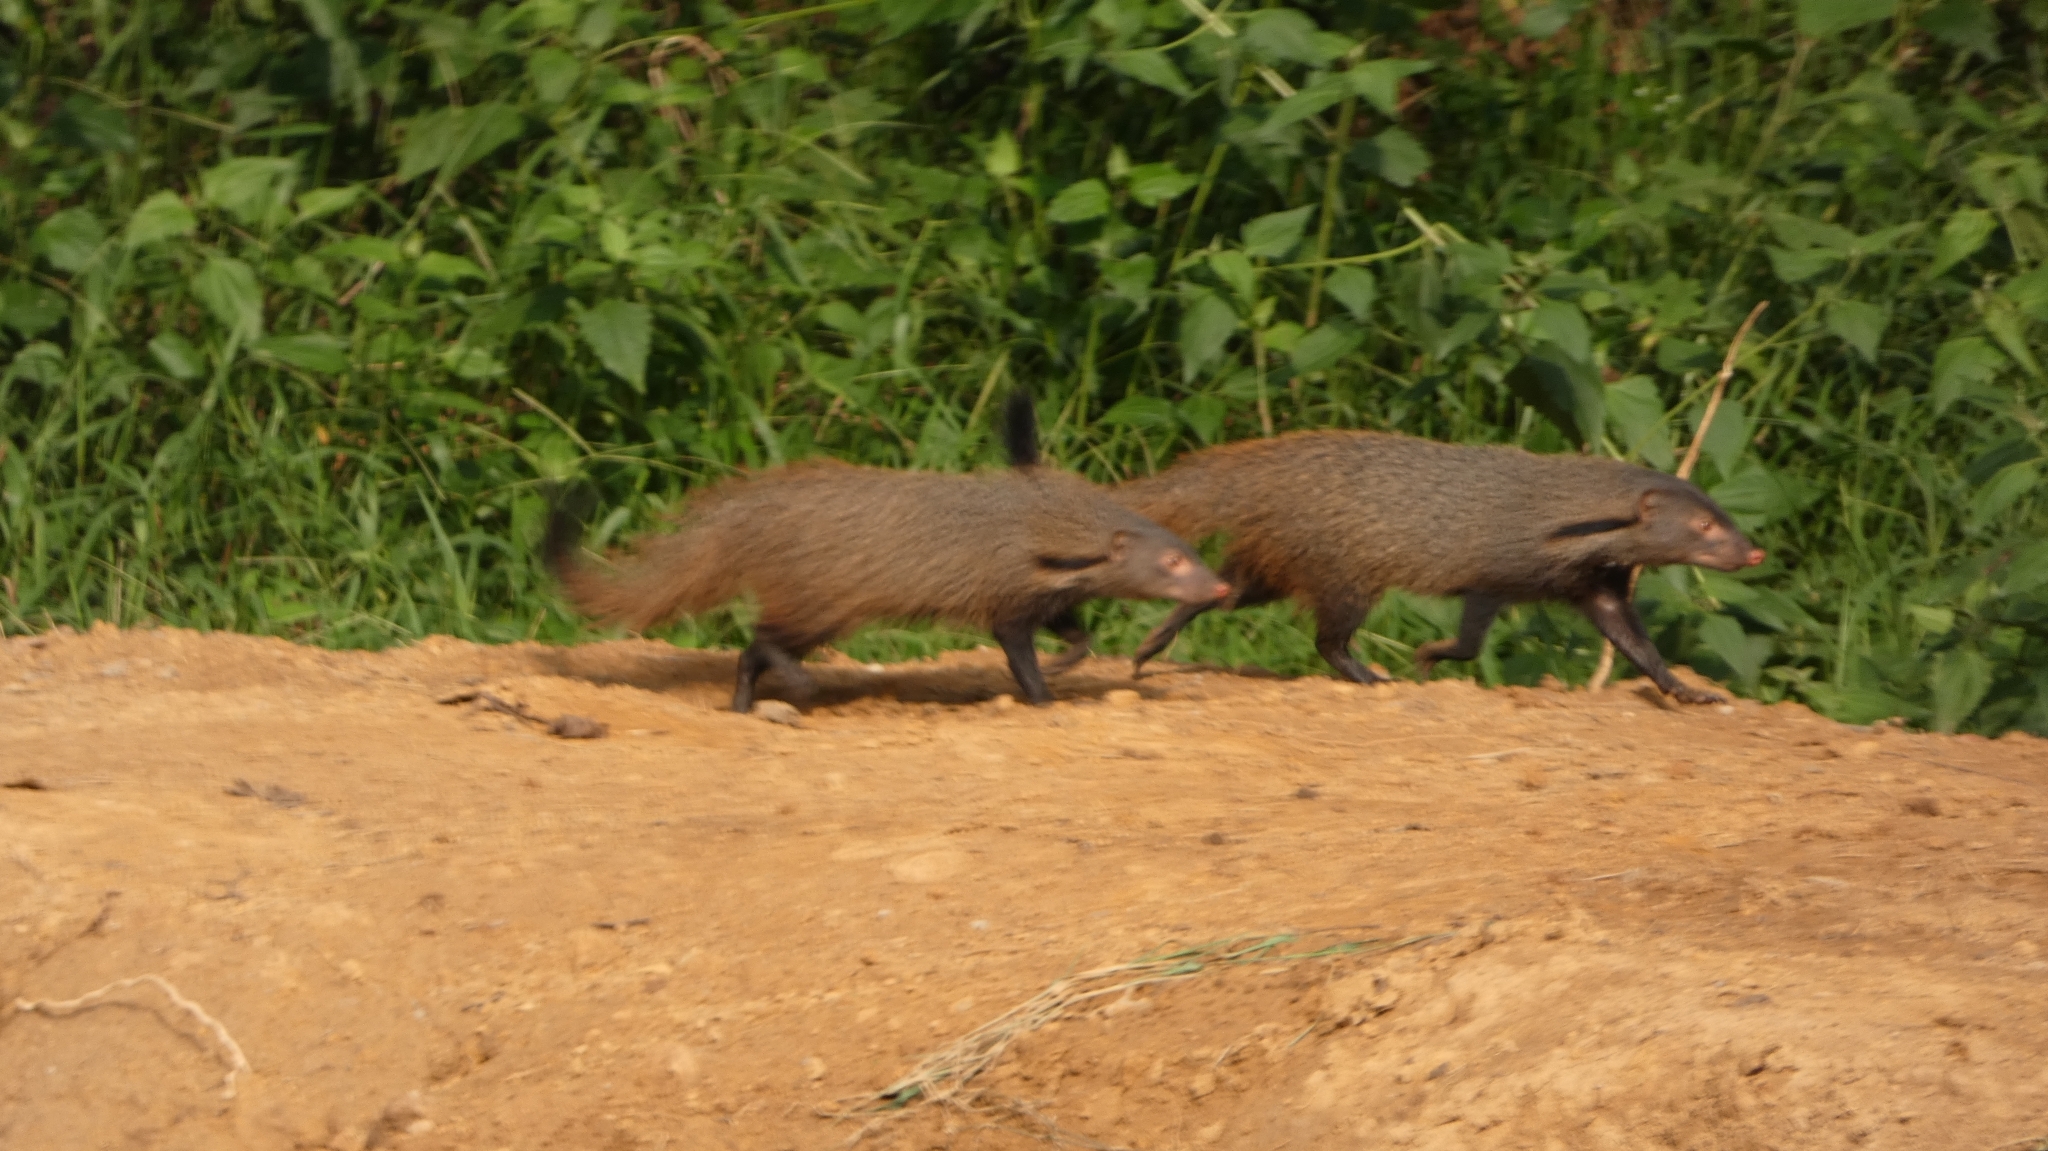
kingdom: Animalia
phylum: Chordata
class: Mammalia
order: Carnivora
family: Herpestidae
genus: Herpestes
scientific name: Herpestes vitticollis
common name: Stripe-necked mongoose
